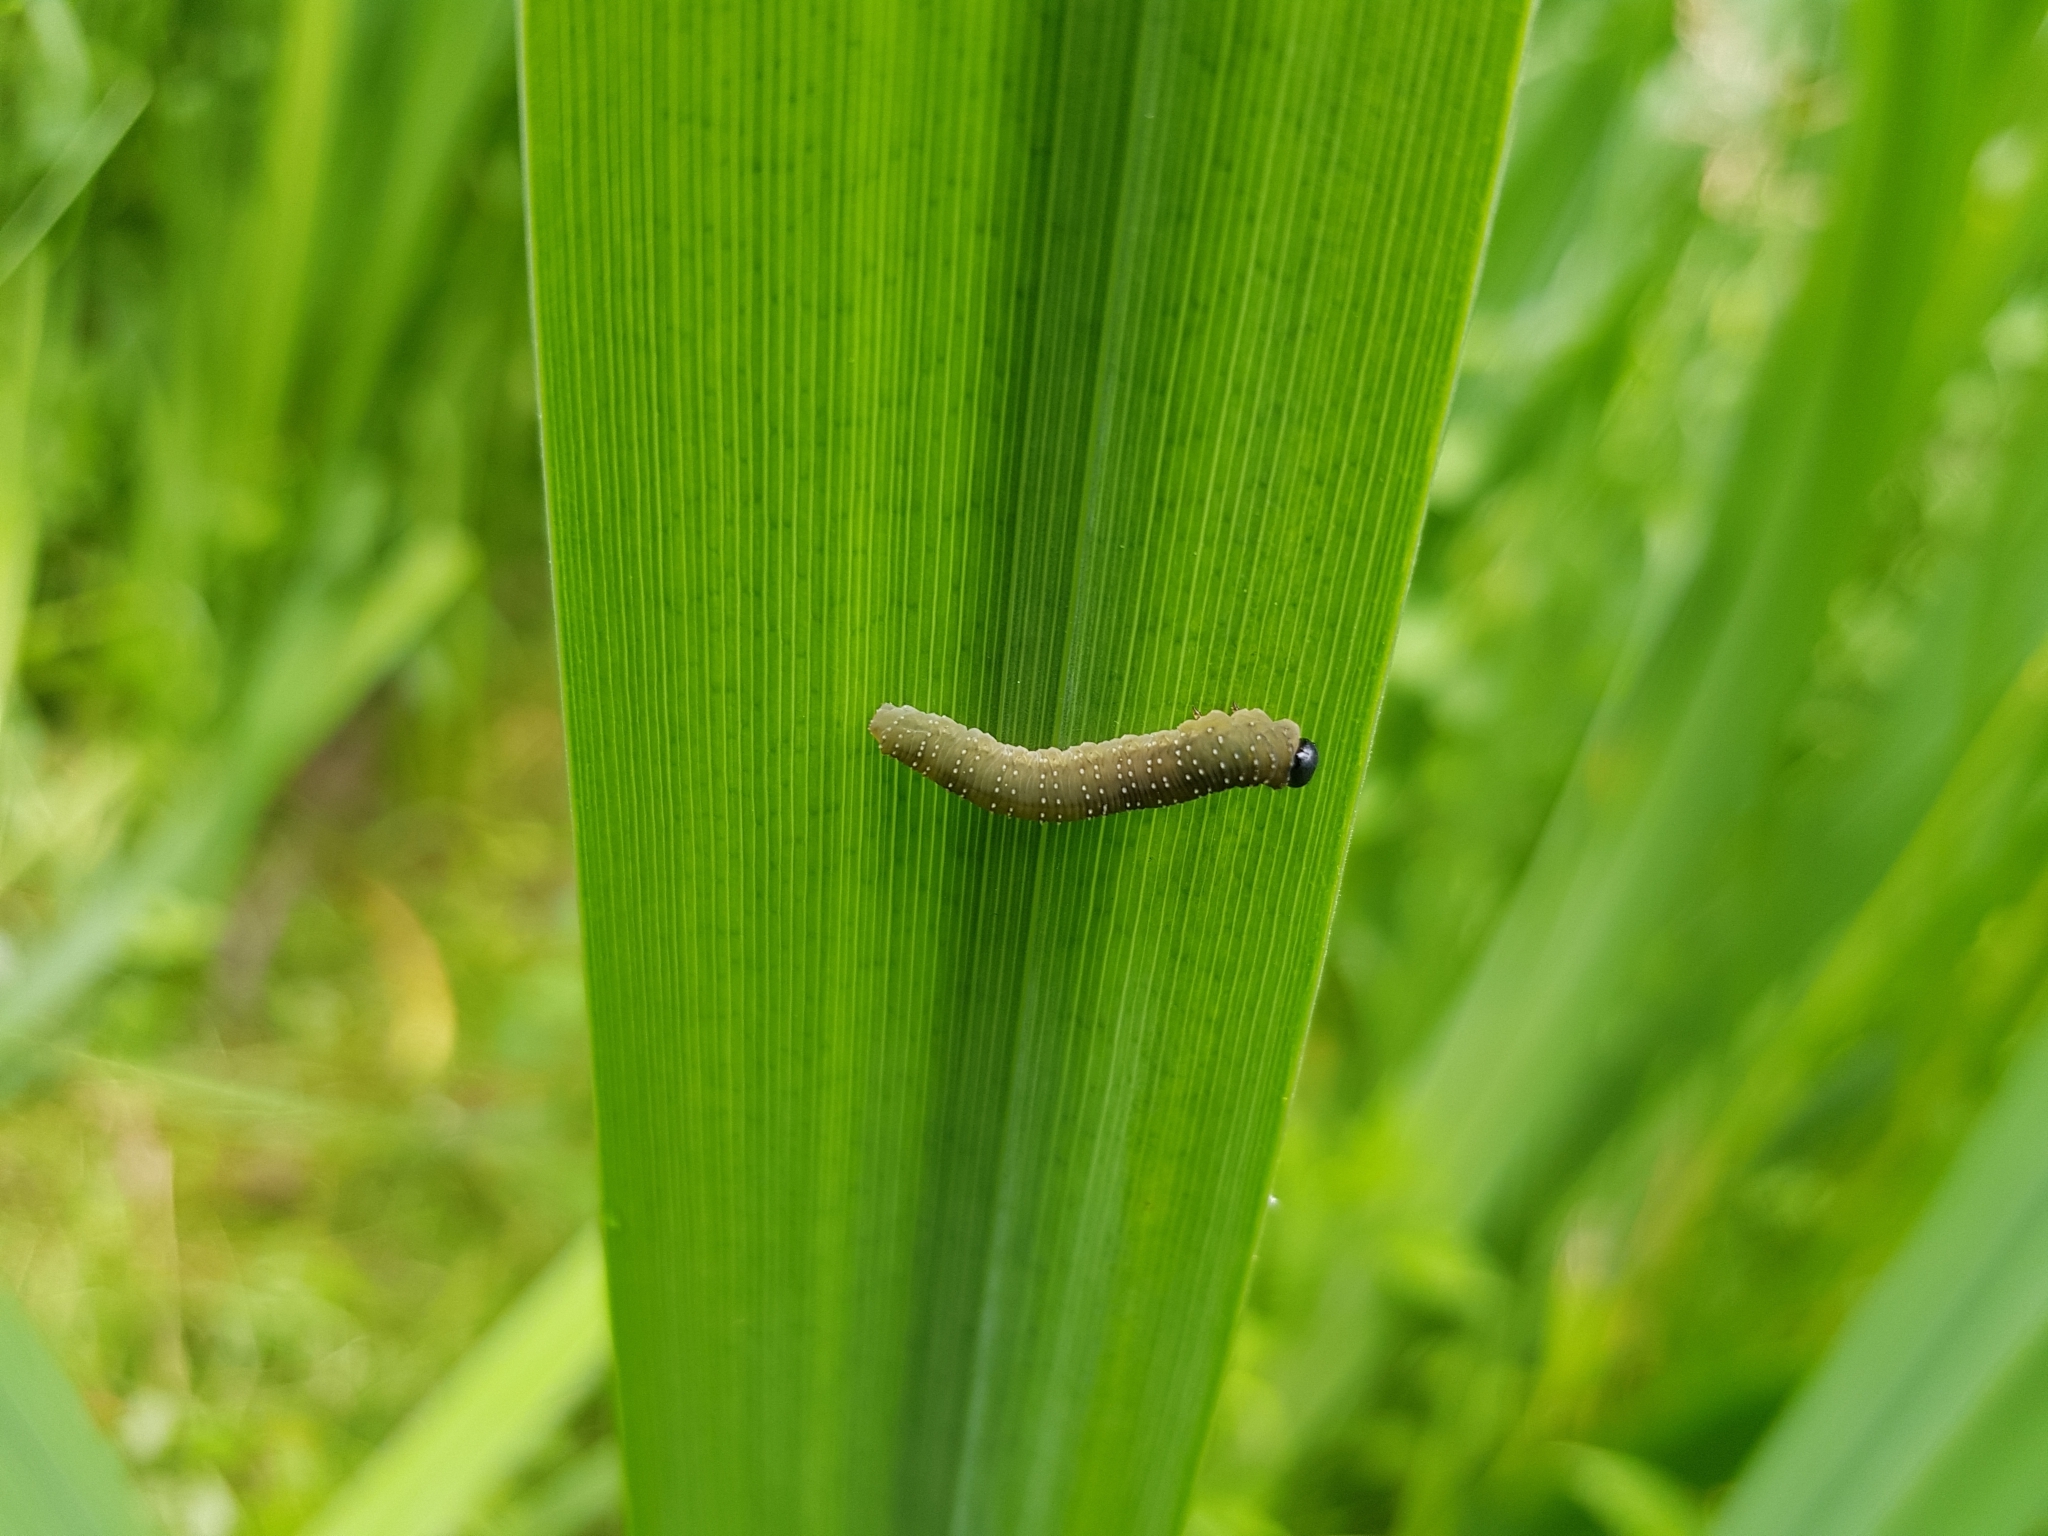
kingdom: Animalia
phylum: Arthropoda
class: Insecta
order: Hymenoptera
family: Tenthredinidae
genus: Rhadinoceraea
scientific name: Rhadinoceraea micans
